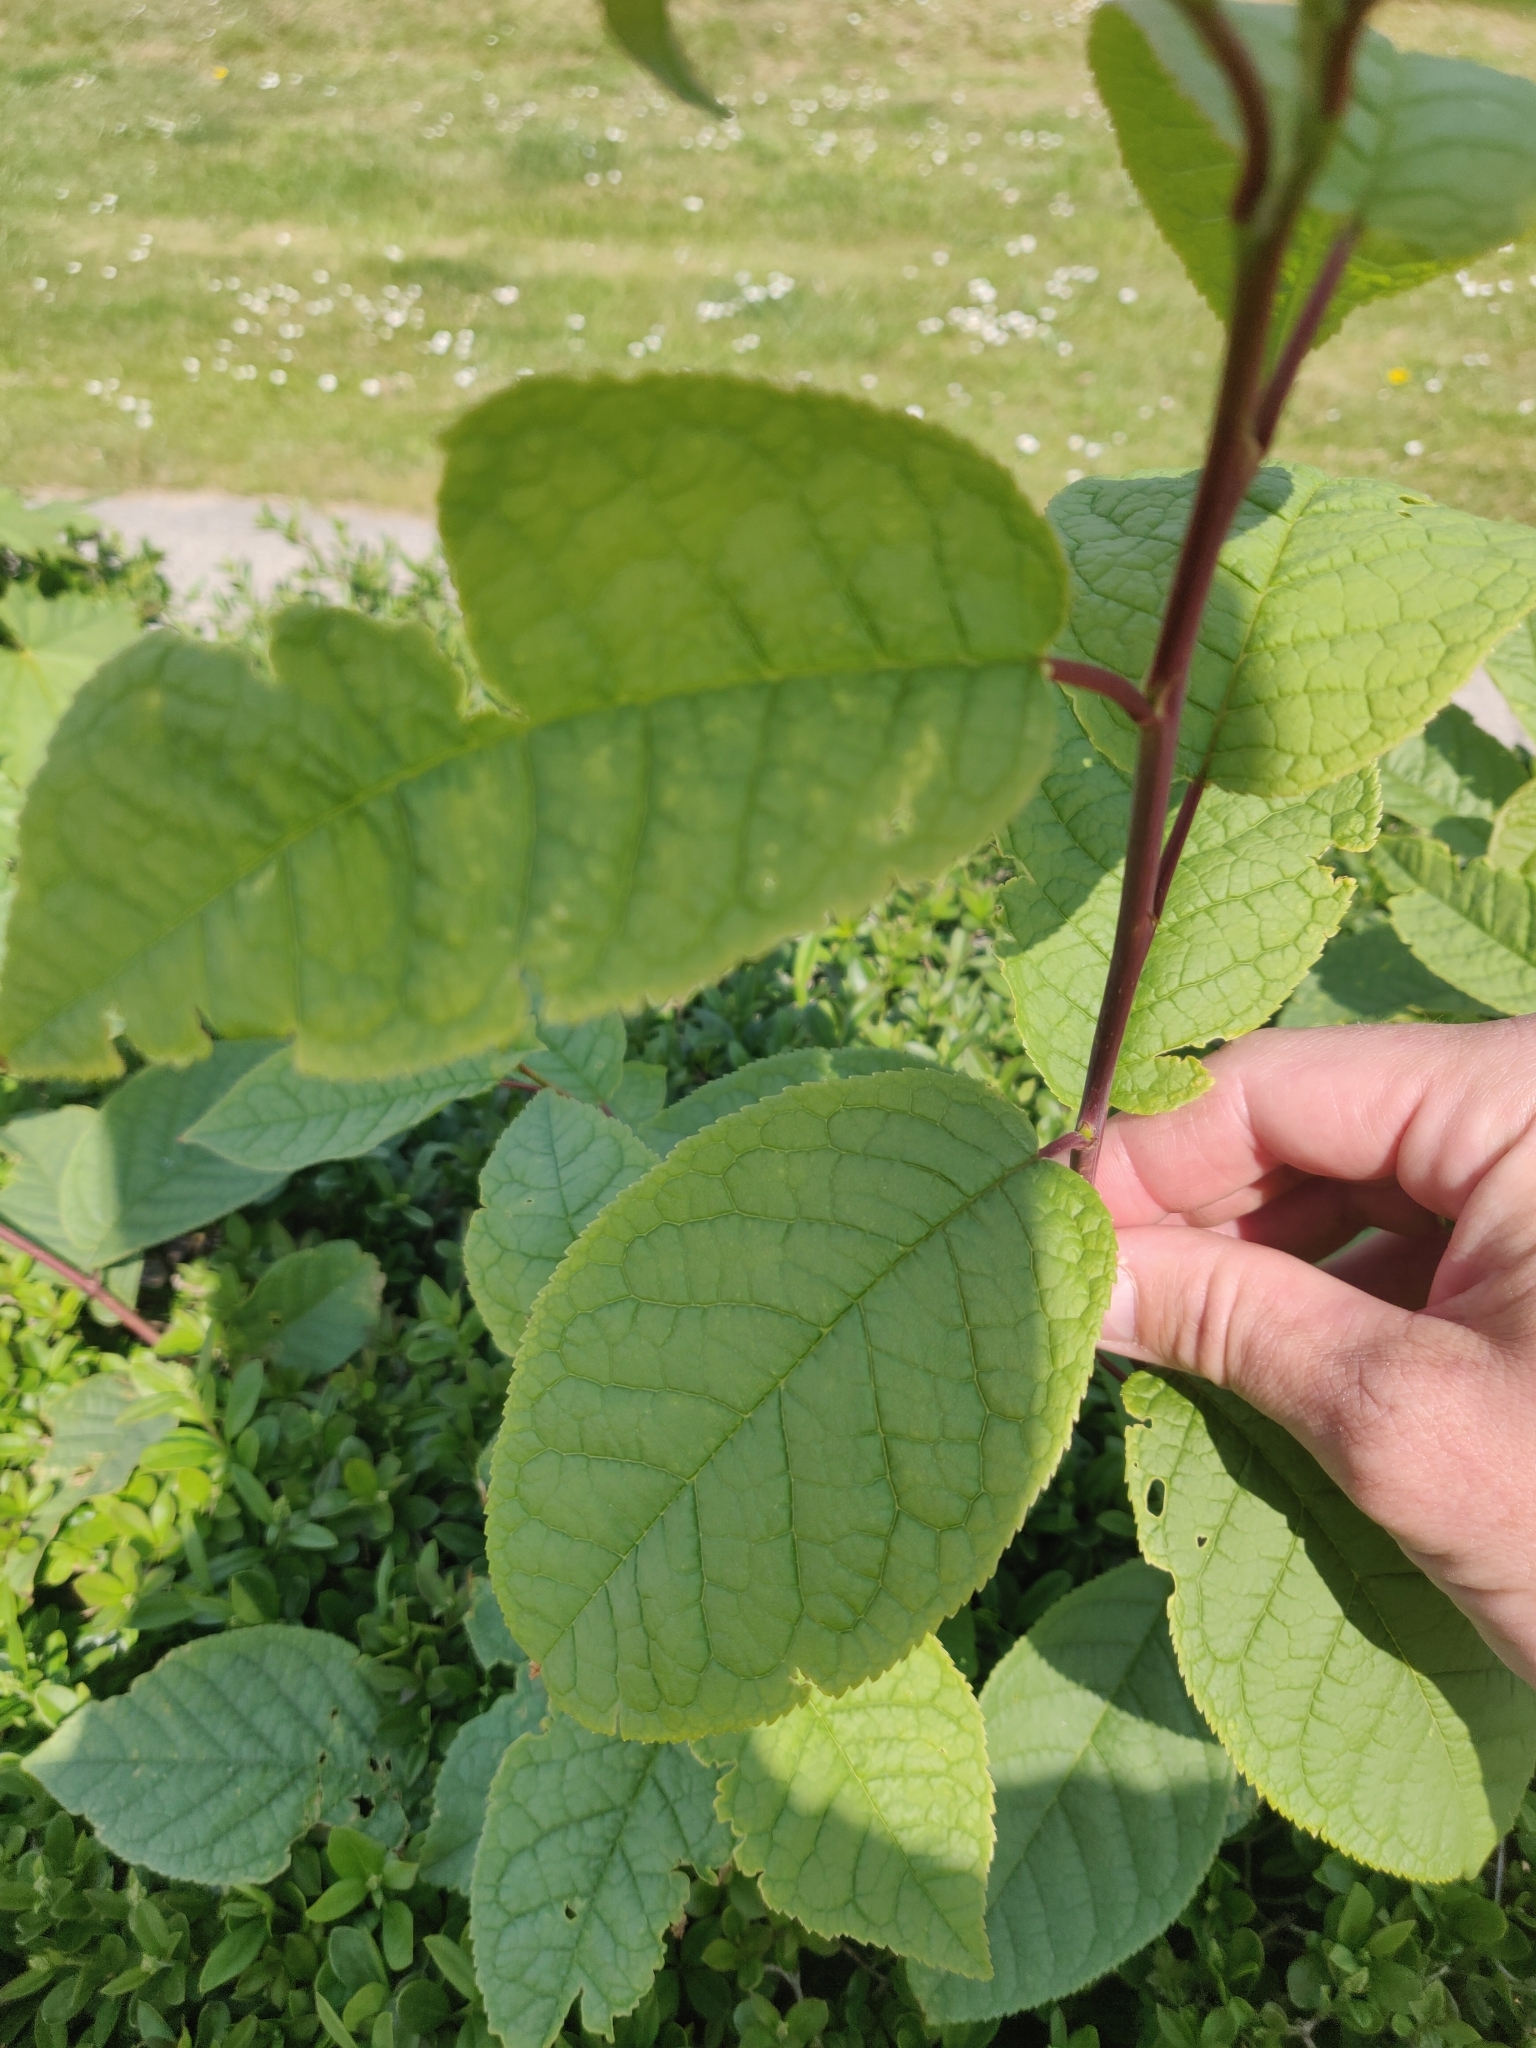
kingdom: Plantae
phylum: Tracheophyta
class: Magnoliopsida
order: Rosales
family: Rosaceae
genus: Prunus
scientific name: Prunus padus
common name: Bird cherry
